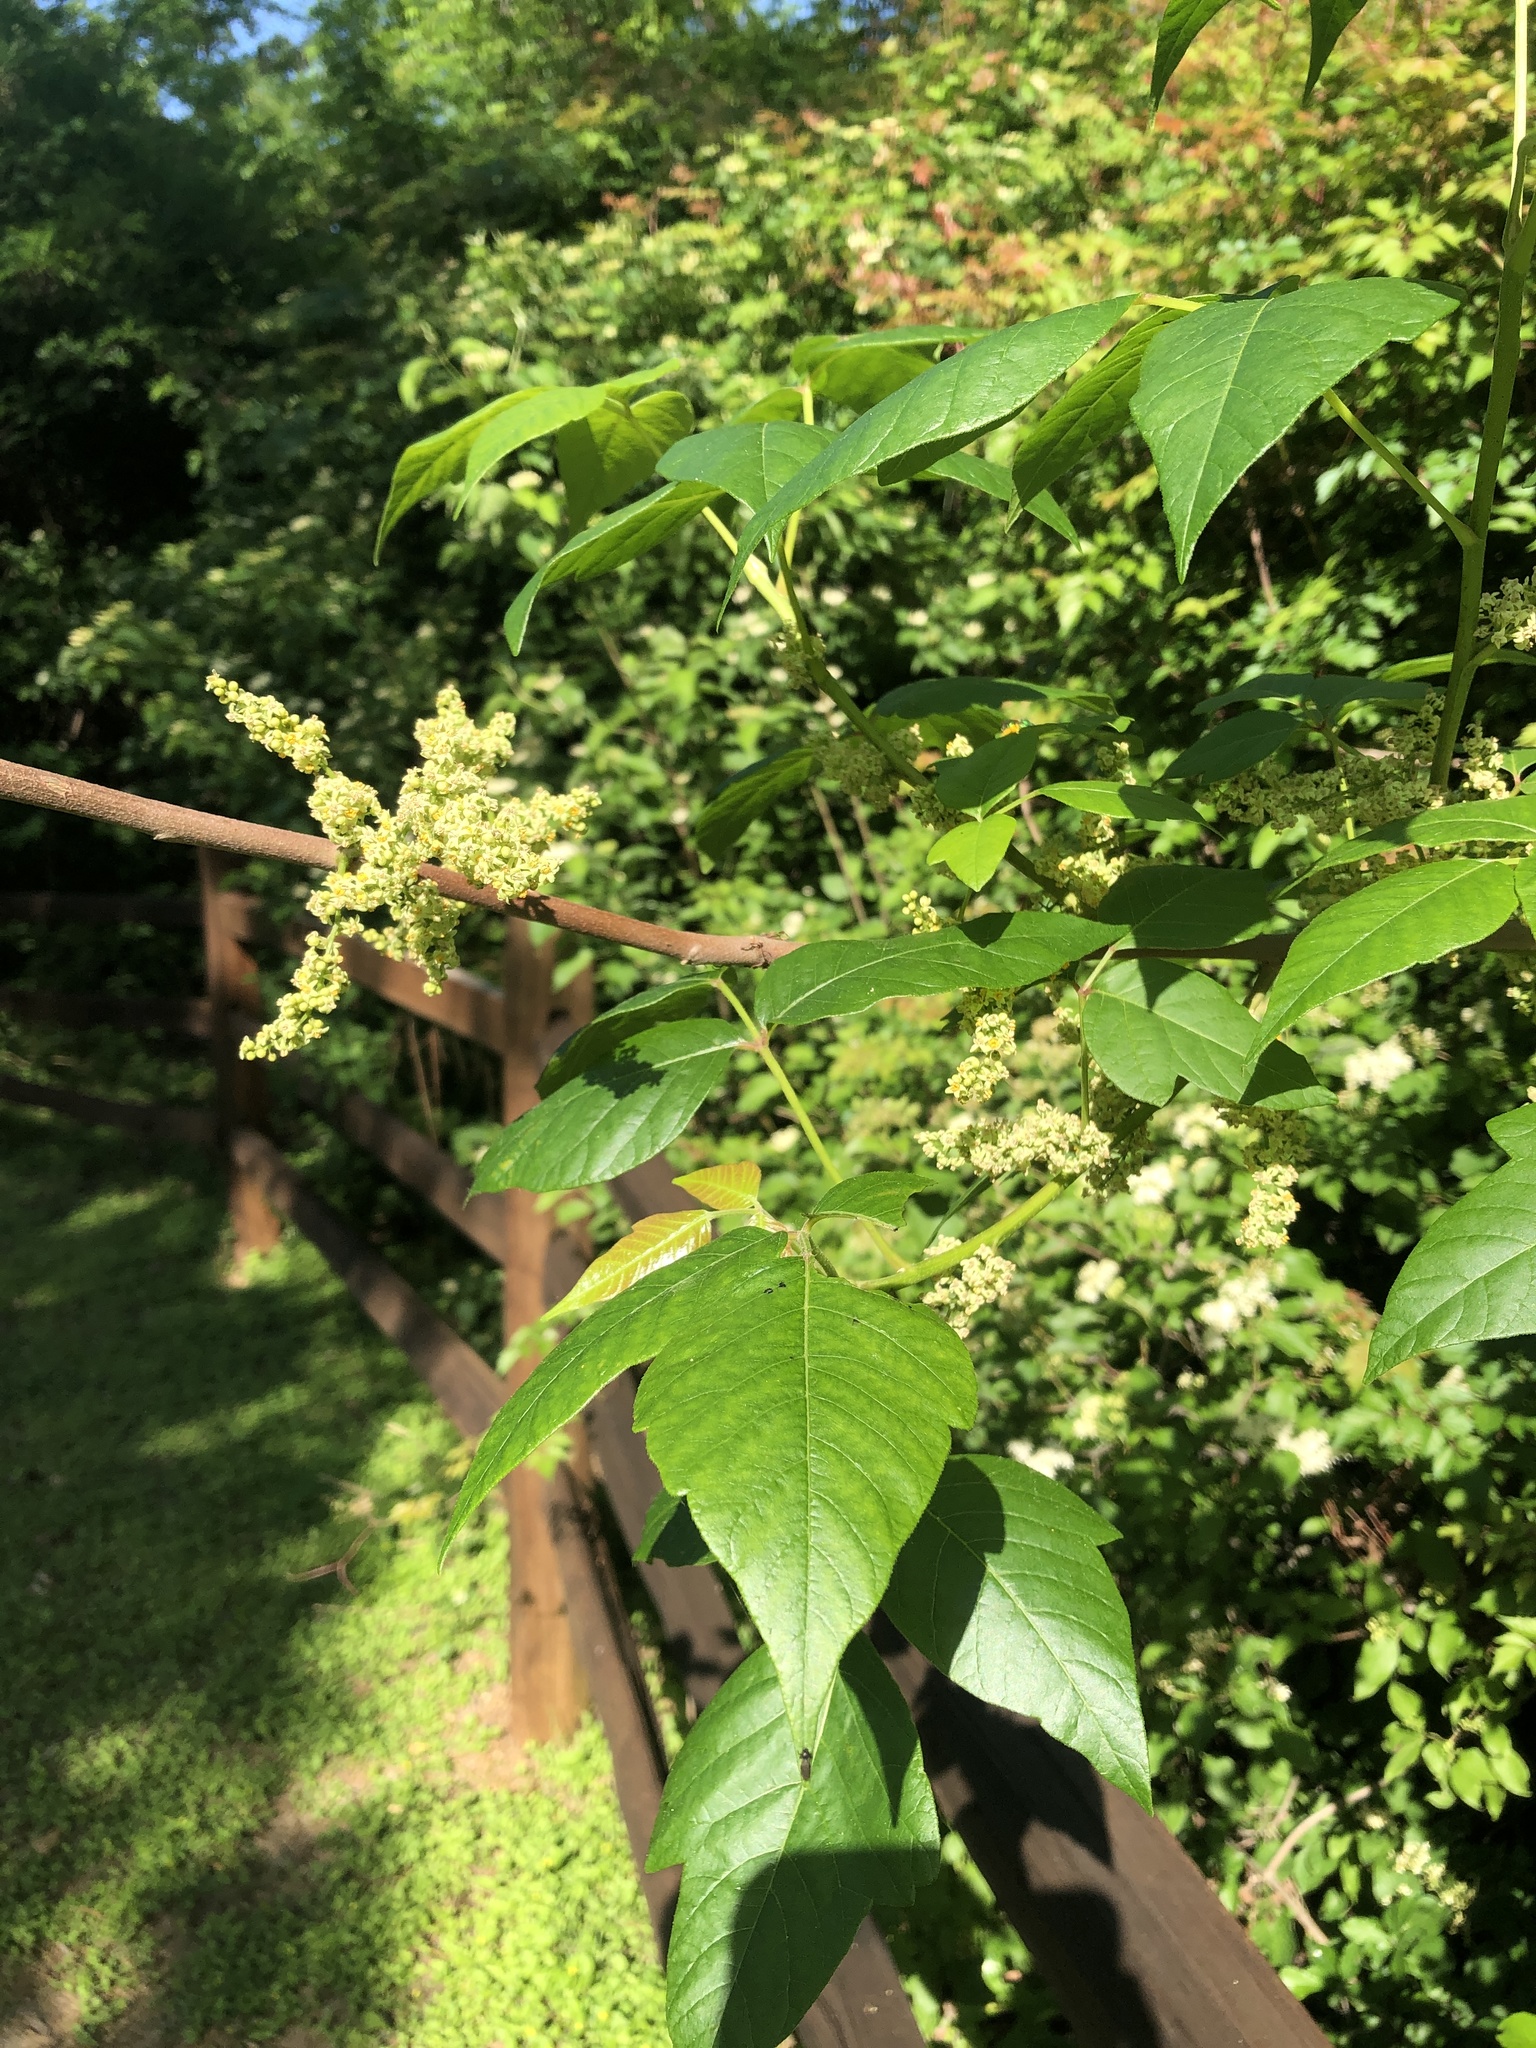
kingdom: Plantae
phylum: Tracheophyta
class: Magnoliopsida
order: Sapindales
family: Anacardiaceae
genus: Toxicodendron
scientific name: Toxicodendron radicans
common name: Poison ivy
